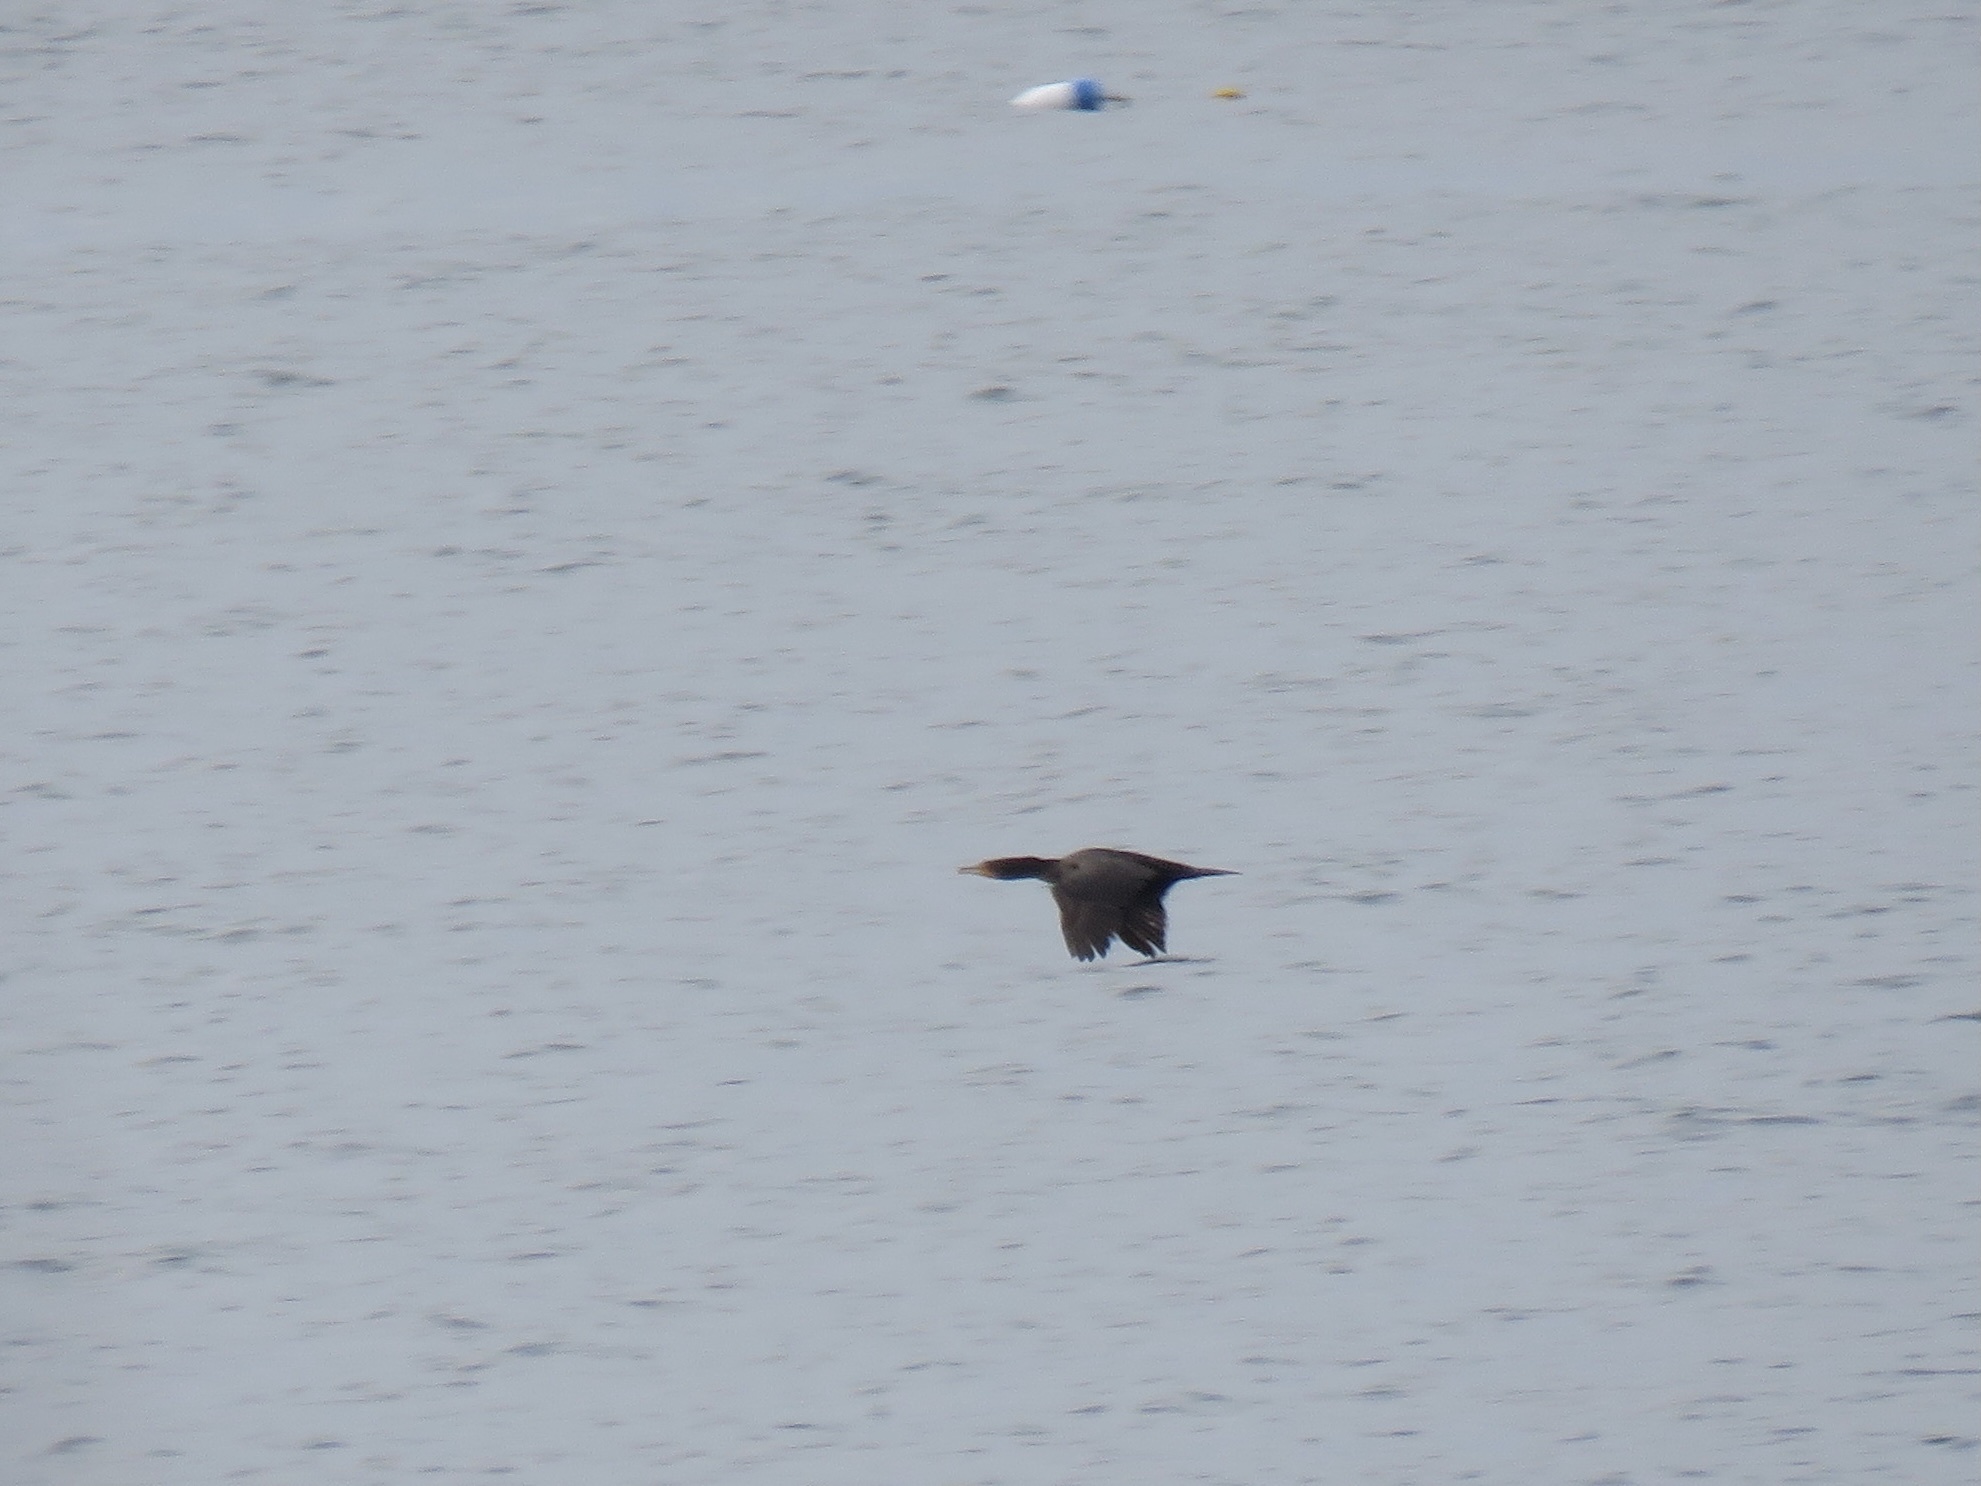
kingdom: Animalia
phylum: Chordata
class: Aves
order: Suliformes
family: Phalacrocoracidae
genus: Phalacrocorax
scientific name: Phalacrocorax auritus
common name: Double-crested cormorant
